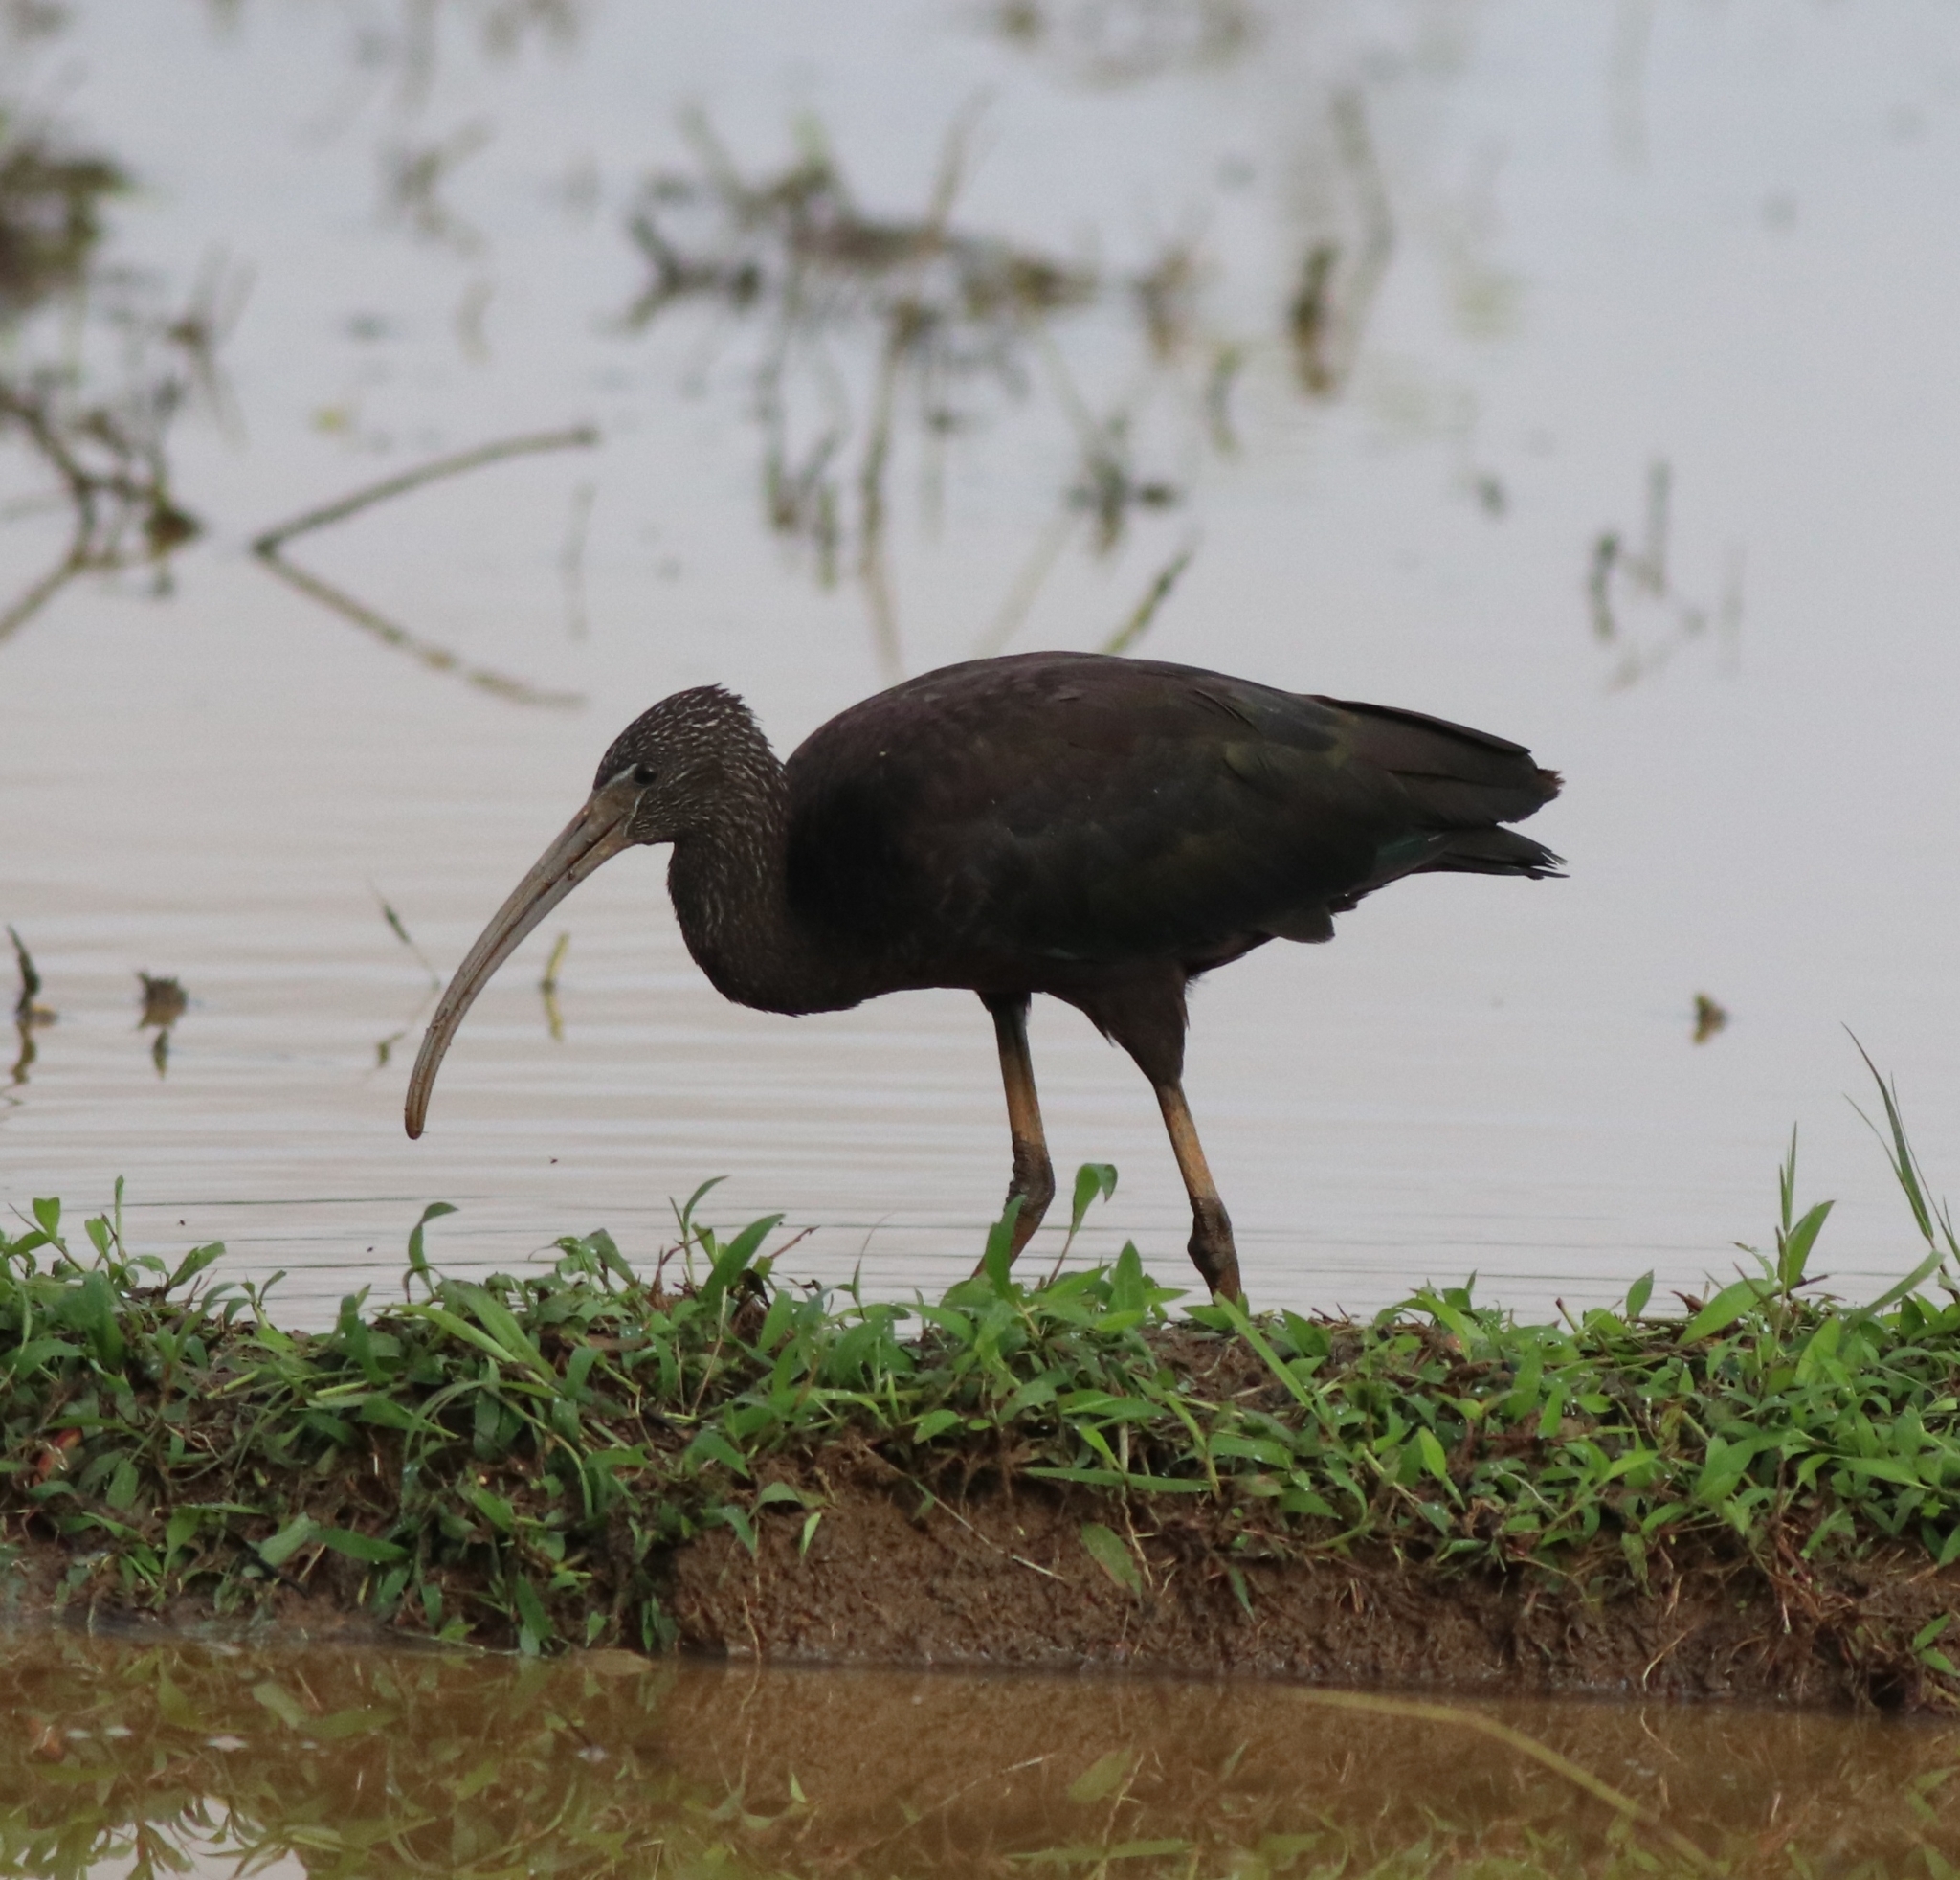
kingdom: Animalia
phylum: Chordata
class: Aves
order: Pelecaniformes
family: Threskiornithidae
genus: Plegadis
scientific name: Plegadis falcinellus
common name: Glossy ibis
